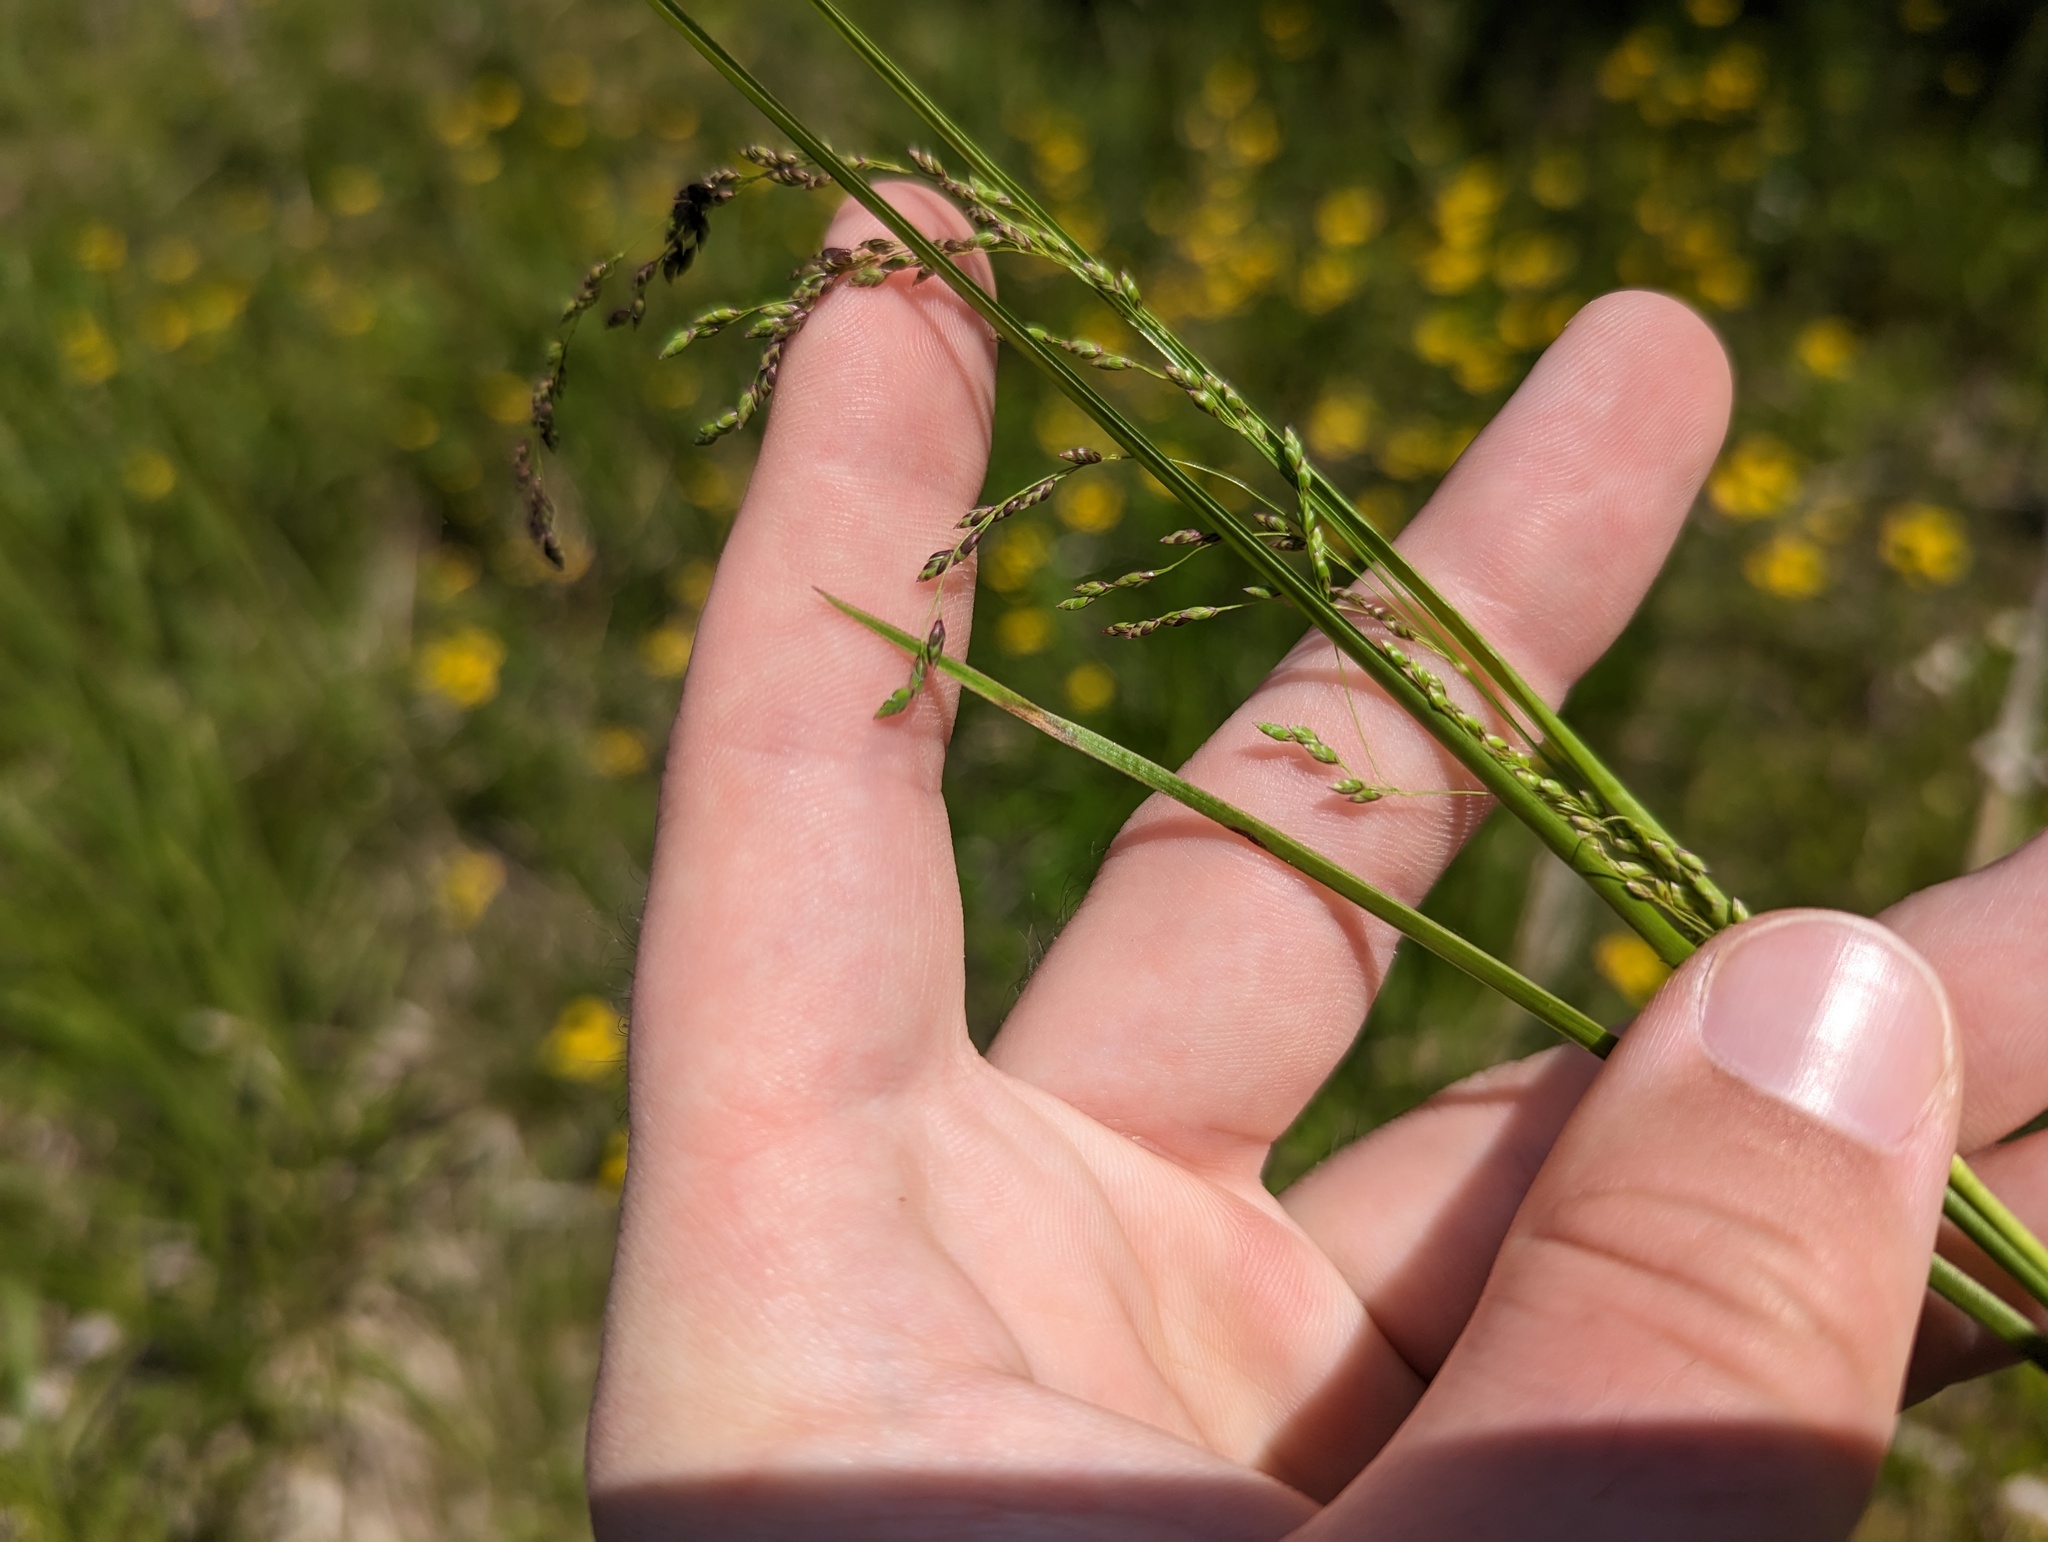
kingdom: Plantae
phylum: Tracheophyta
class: Liliopsida
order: Poales
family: Poaceae
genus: Glyceria
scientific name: Glyceria striata
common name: Fowl manna grass
